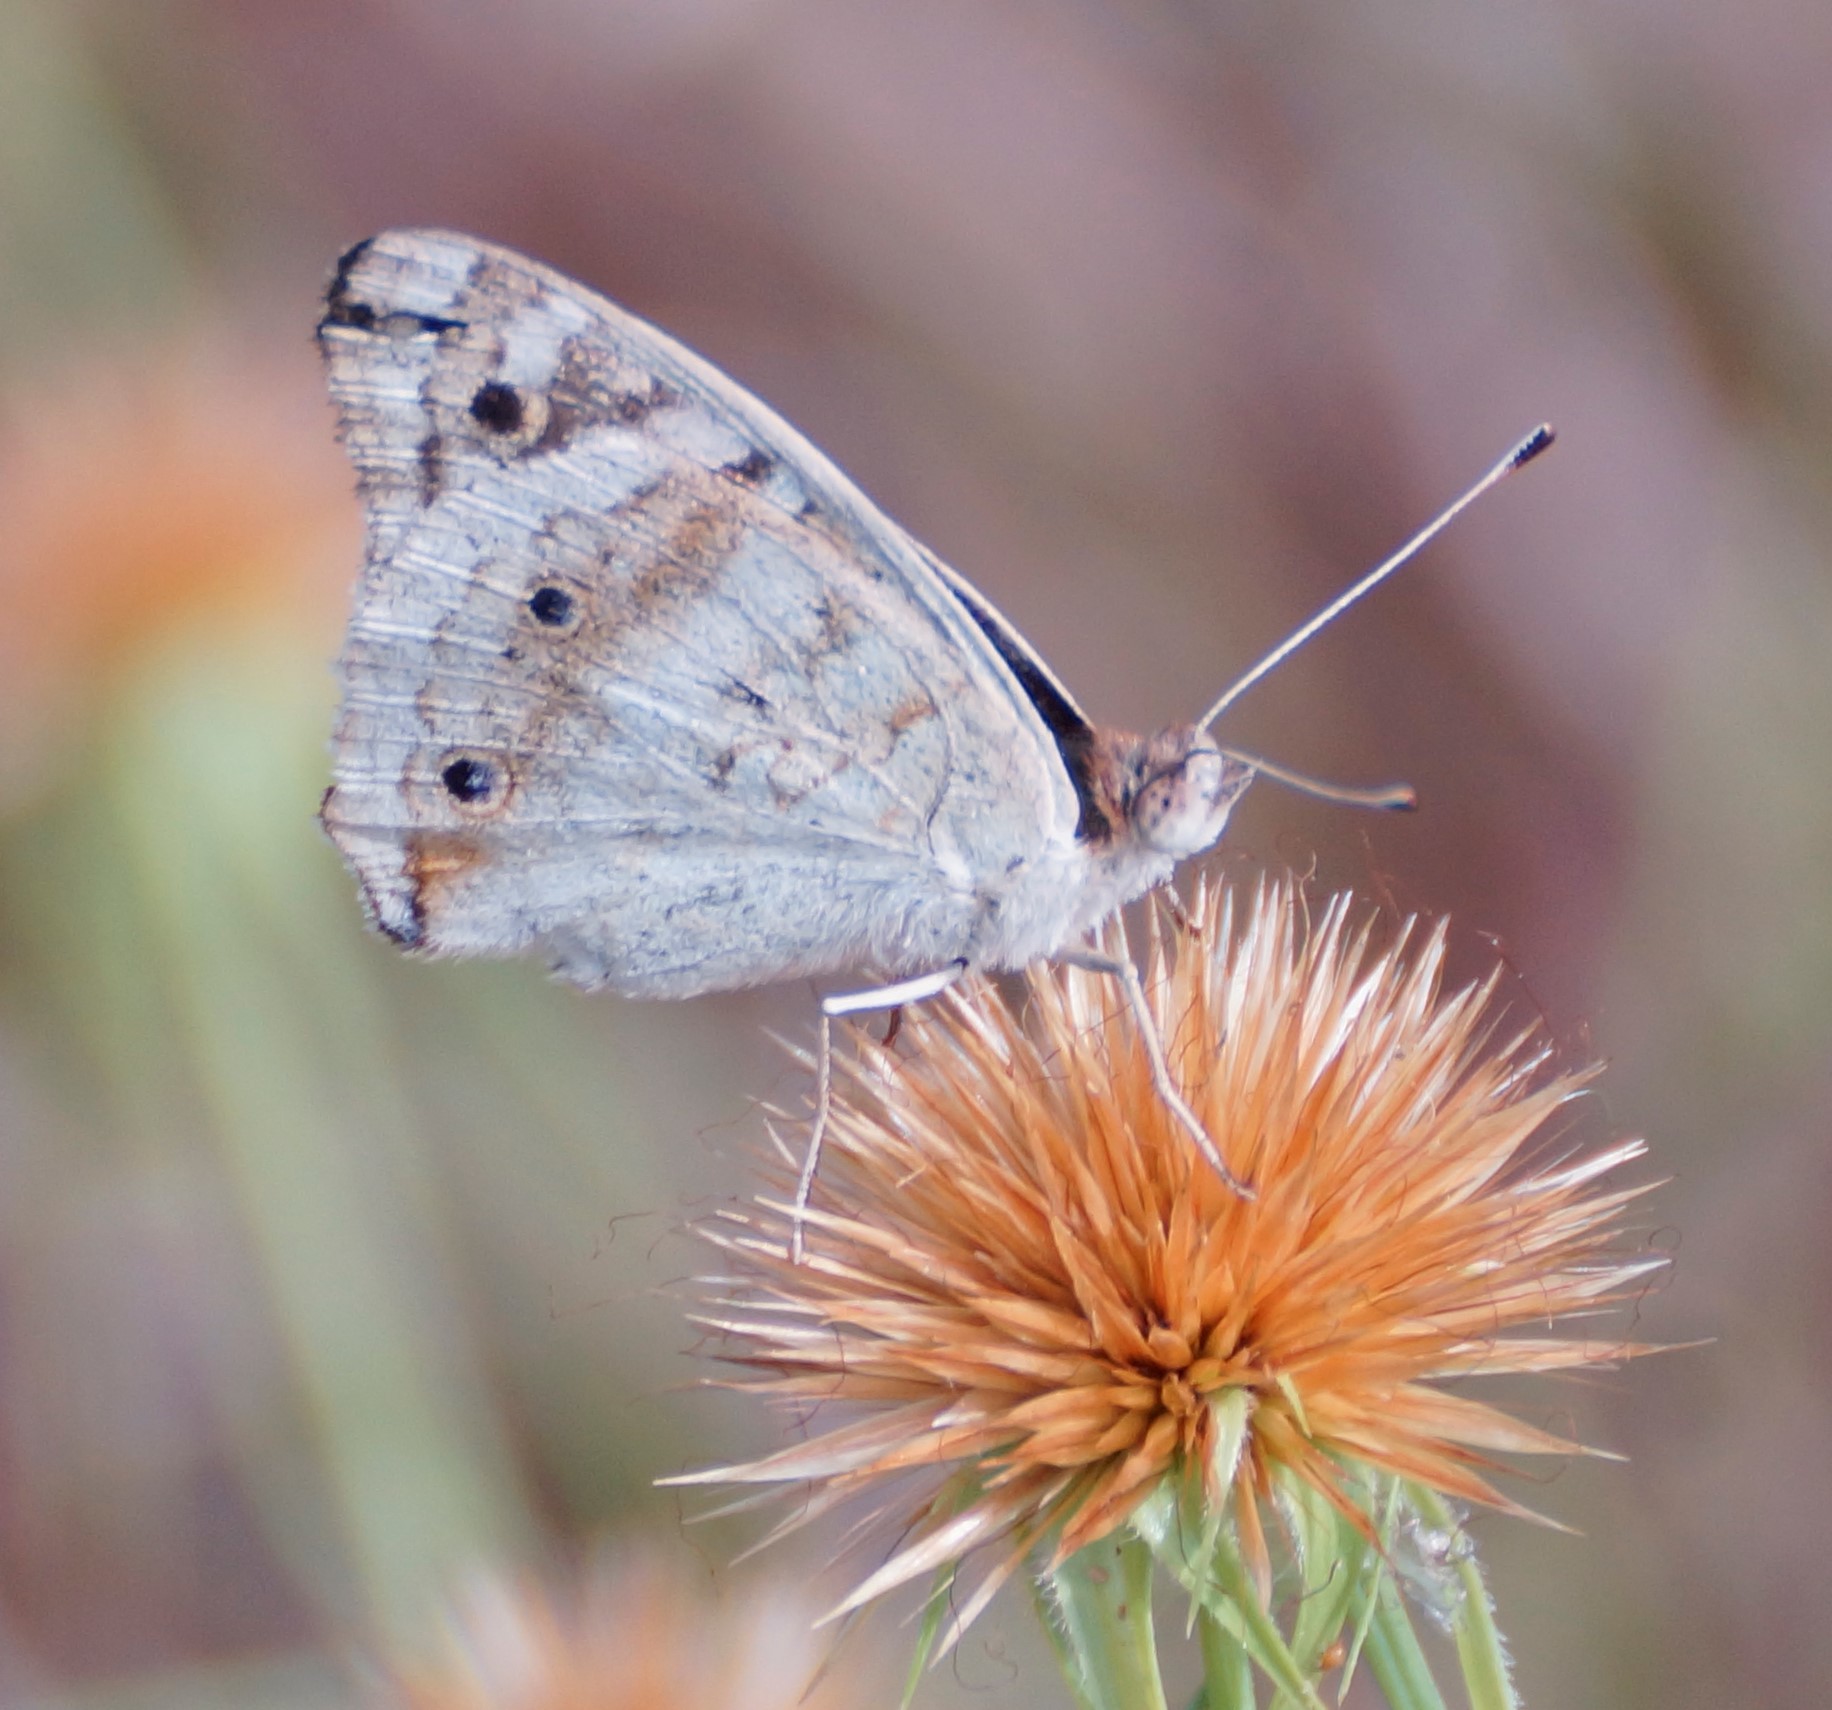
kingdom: Animalia
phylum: Arthropoda
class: Insecta
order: Lepidoptera
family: Nymphalidae
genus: Junonia
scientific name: Junonia orithya
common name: Blue pansy
